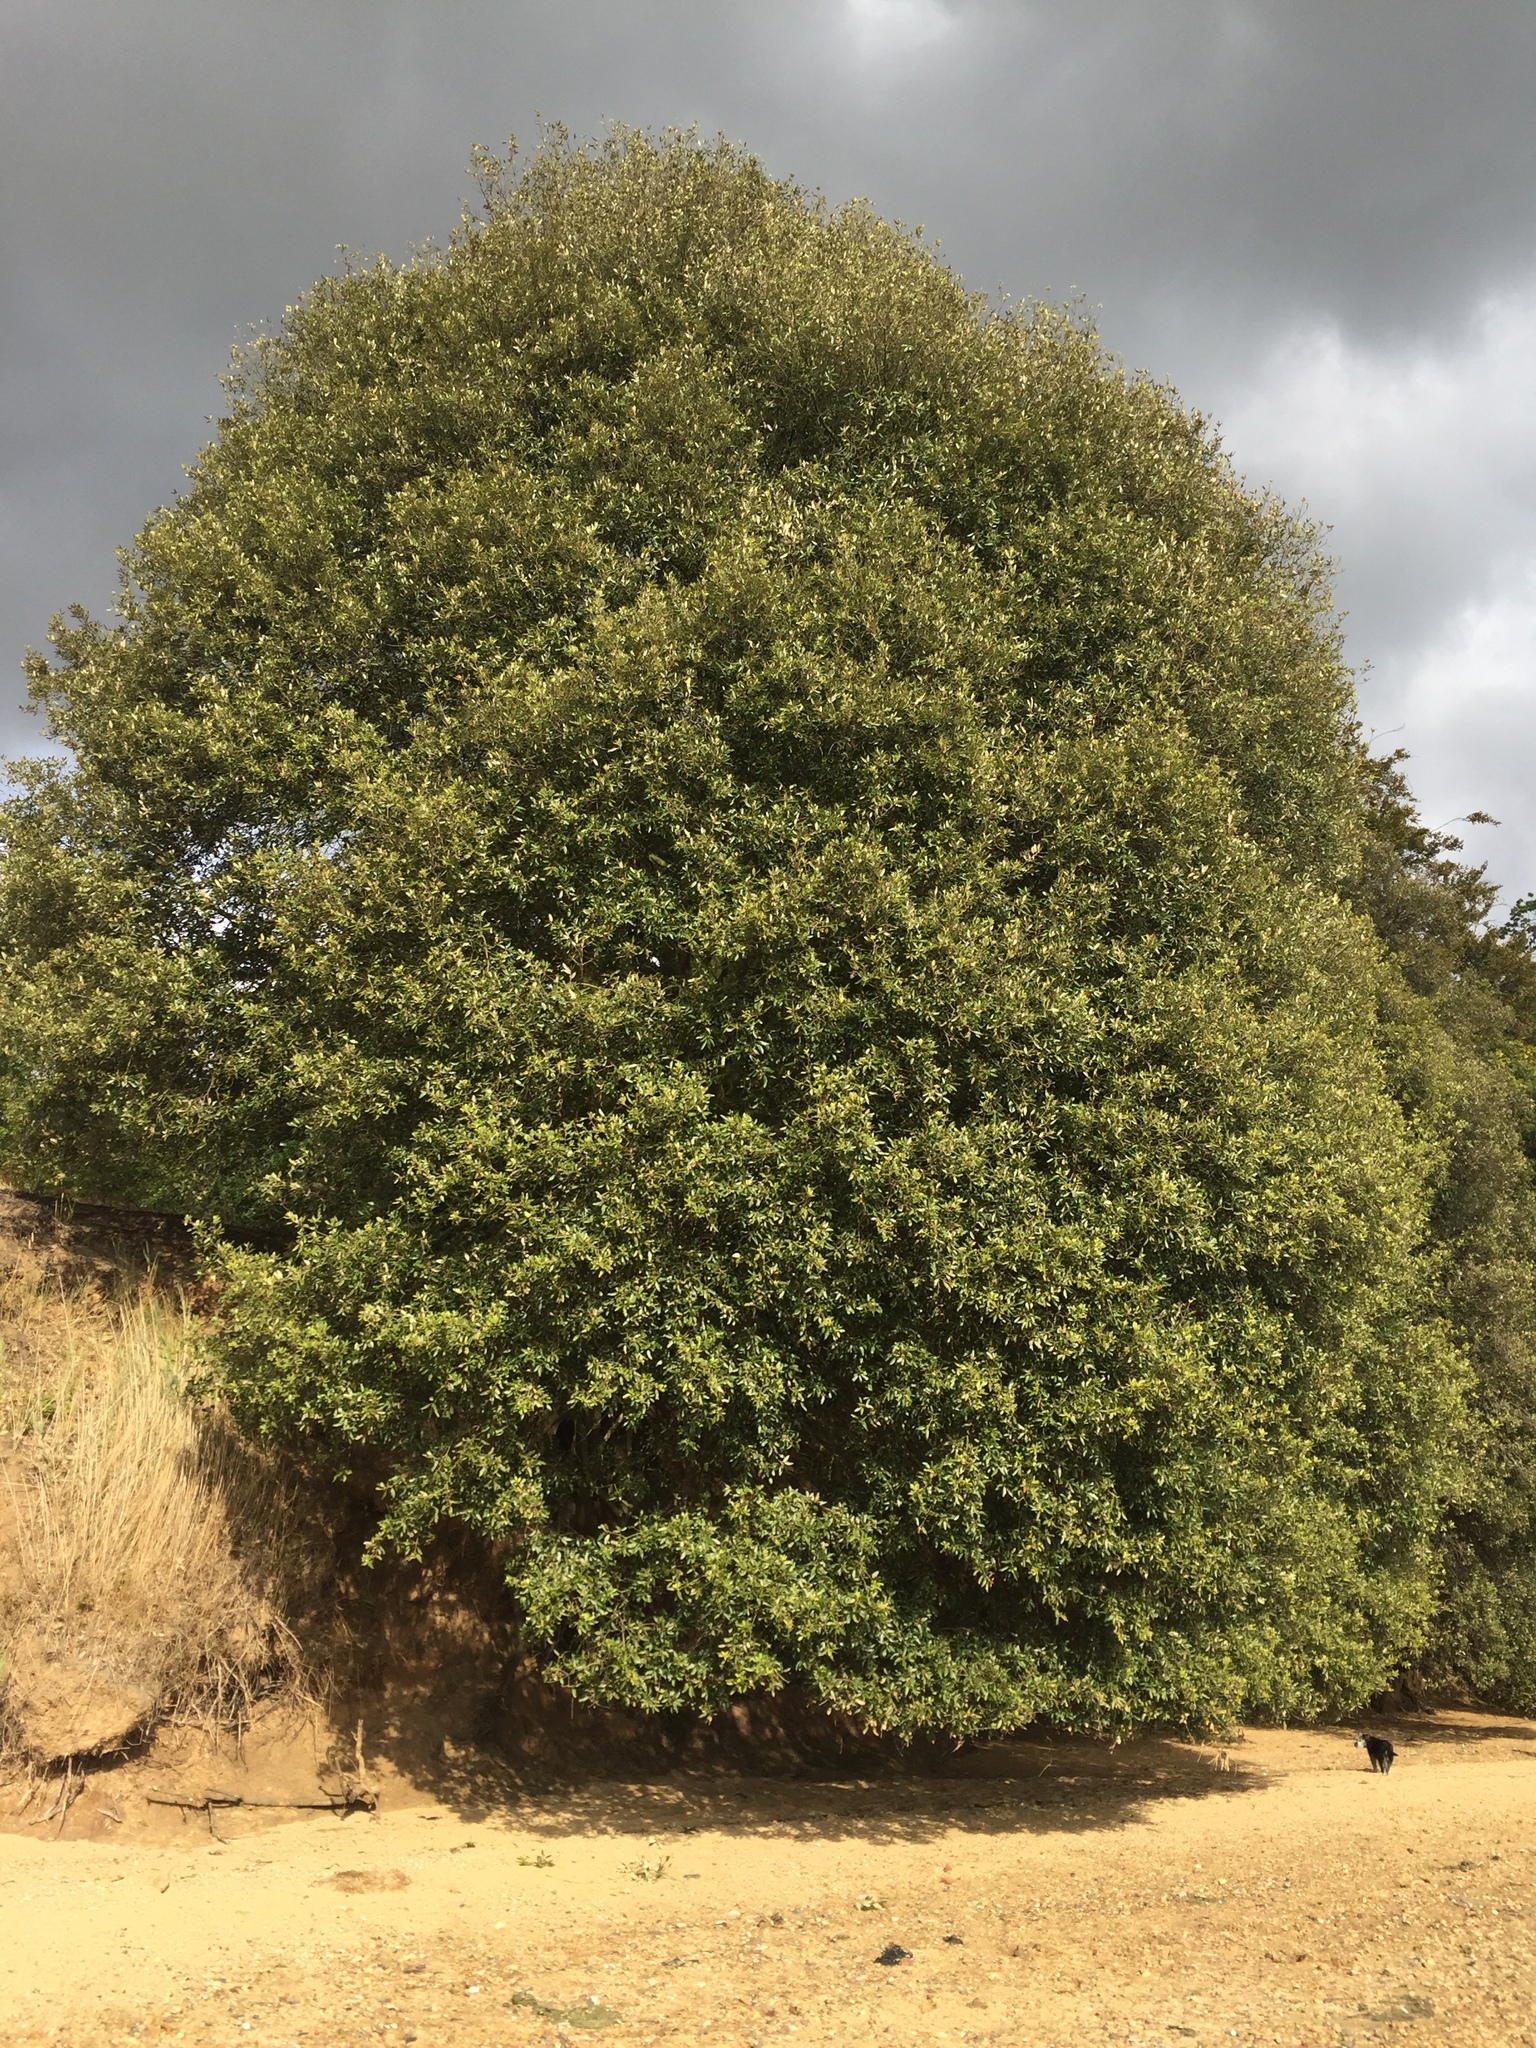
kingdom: Plantae
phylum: Tracheophyta
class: Magnoliopsida
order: Fagales
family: Fagaceae
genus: Quercus
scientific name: Quercus ilex
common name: Evergreen oak
